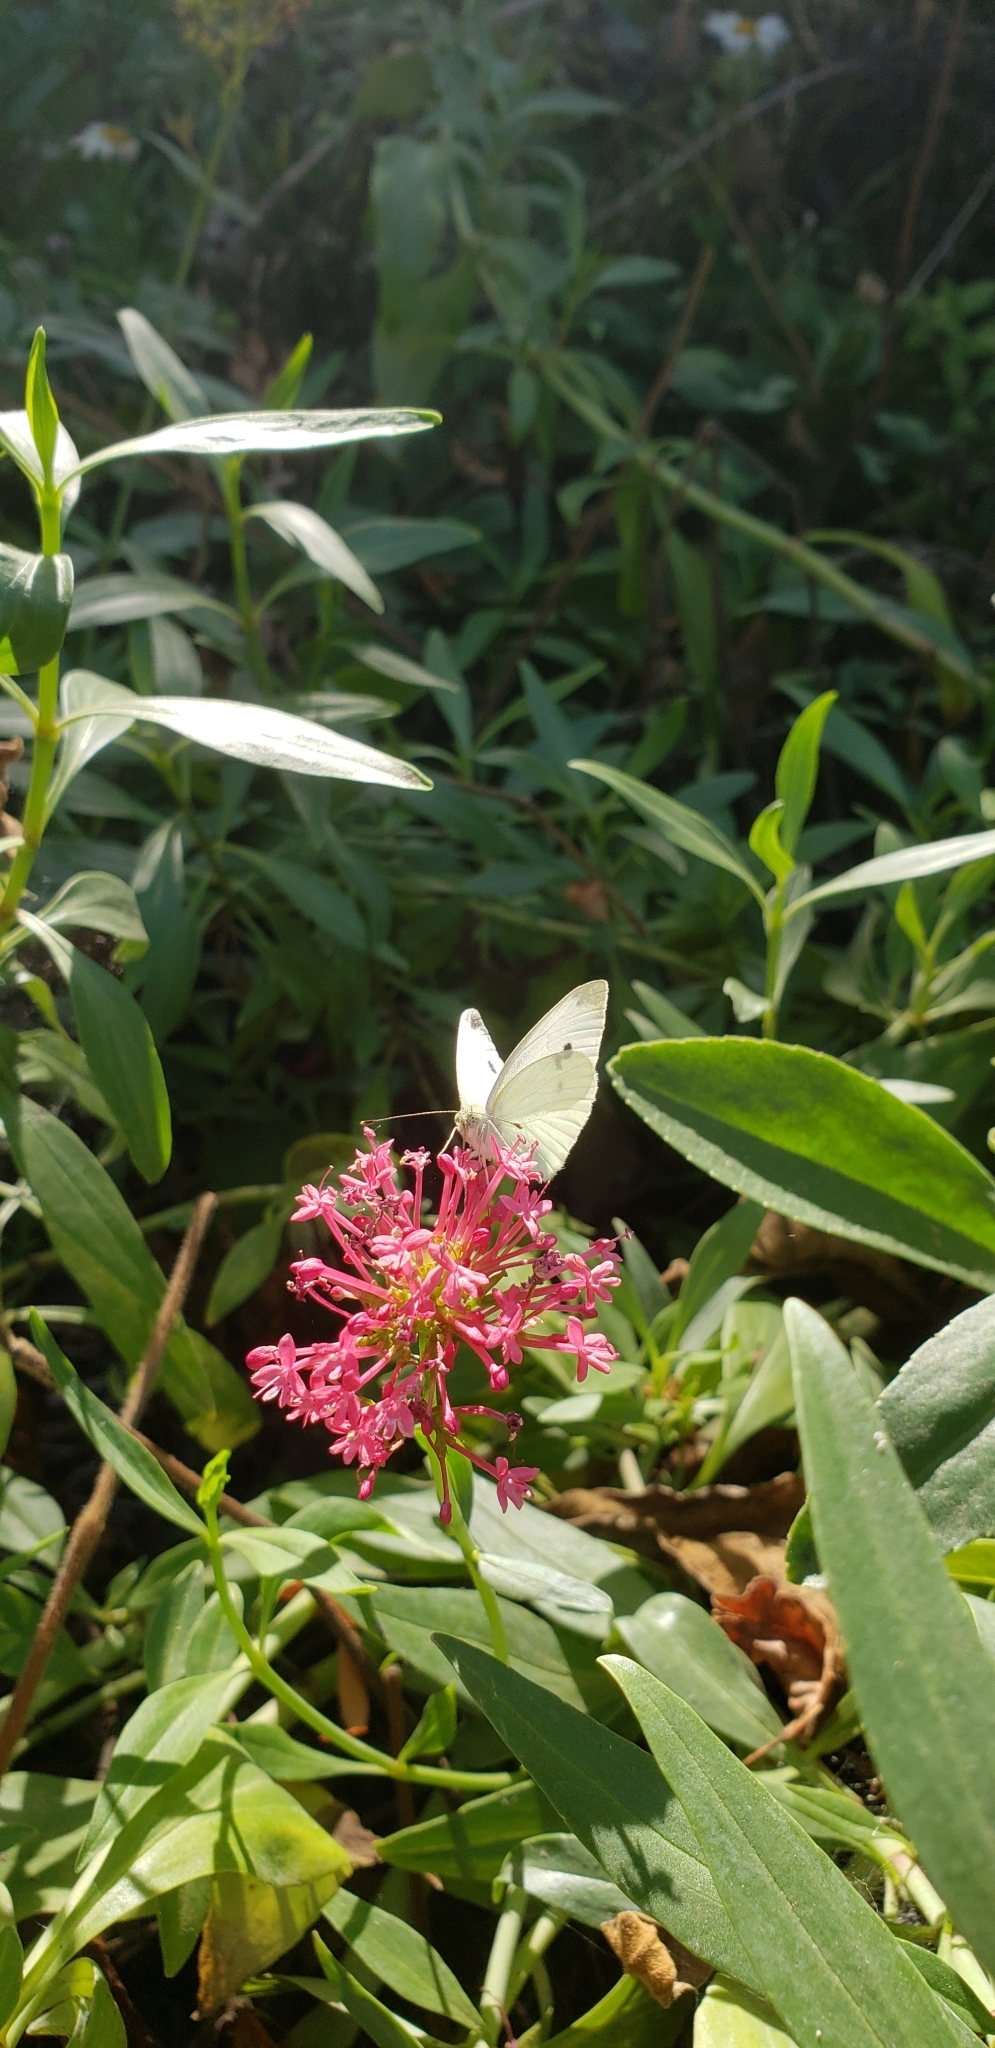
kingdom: Animalia
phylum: Arthropoda
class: Insecta
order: Lepidoptera
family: Pieridae
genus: Pieris
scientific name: Pieris rapae
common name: Small white
